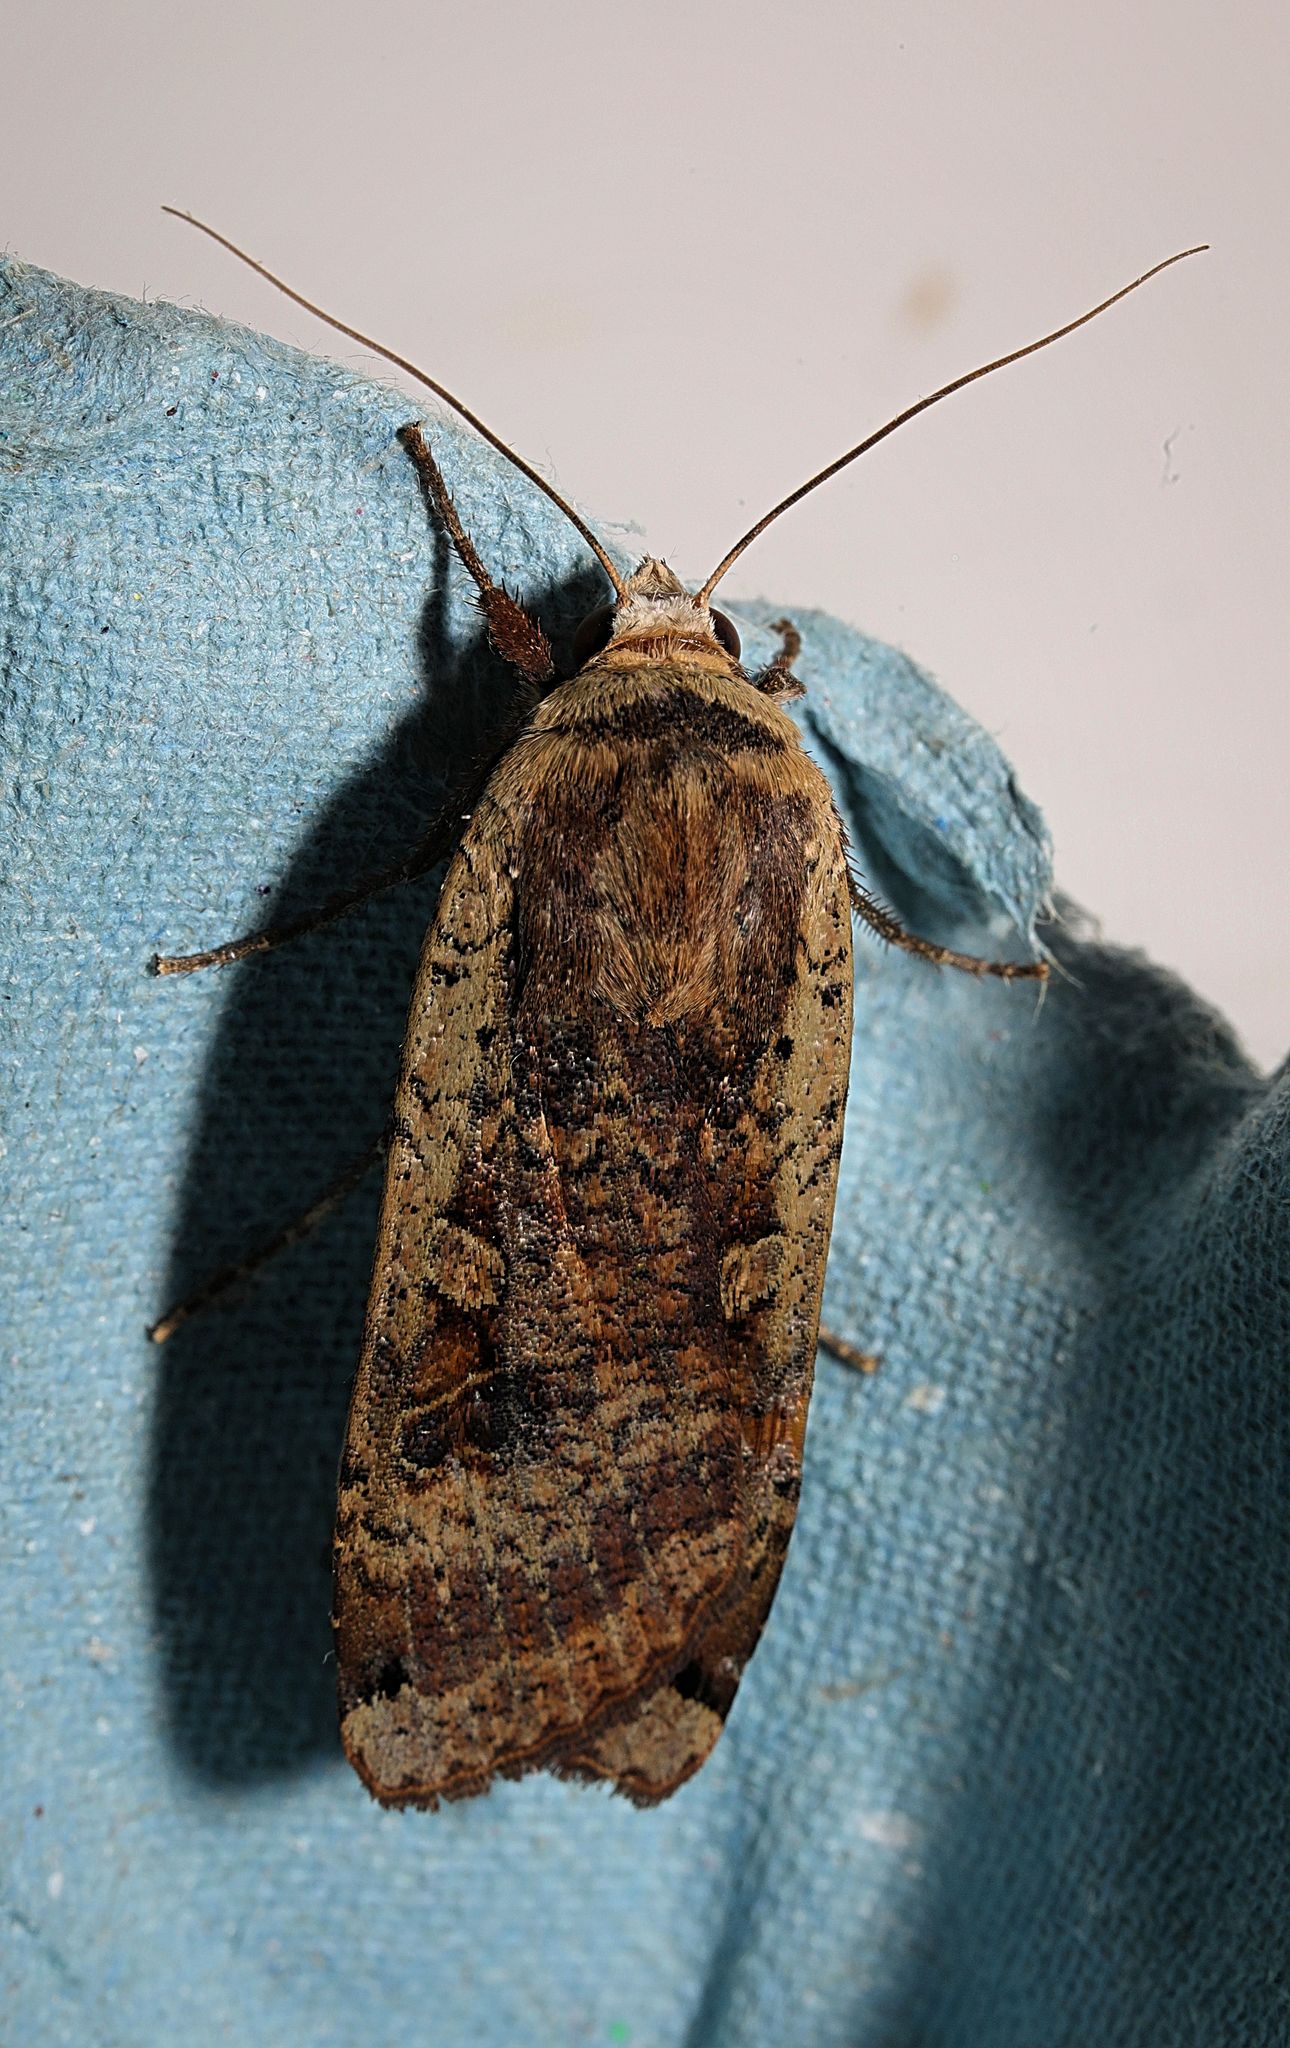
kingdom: Animalia
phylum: Arthropoda
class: Insecta
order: Lepidoptera
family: Noctuidae
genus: Noctua
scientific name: Noctua pronuba
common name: Large yellow underwing
